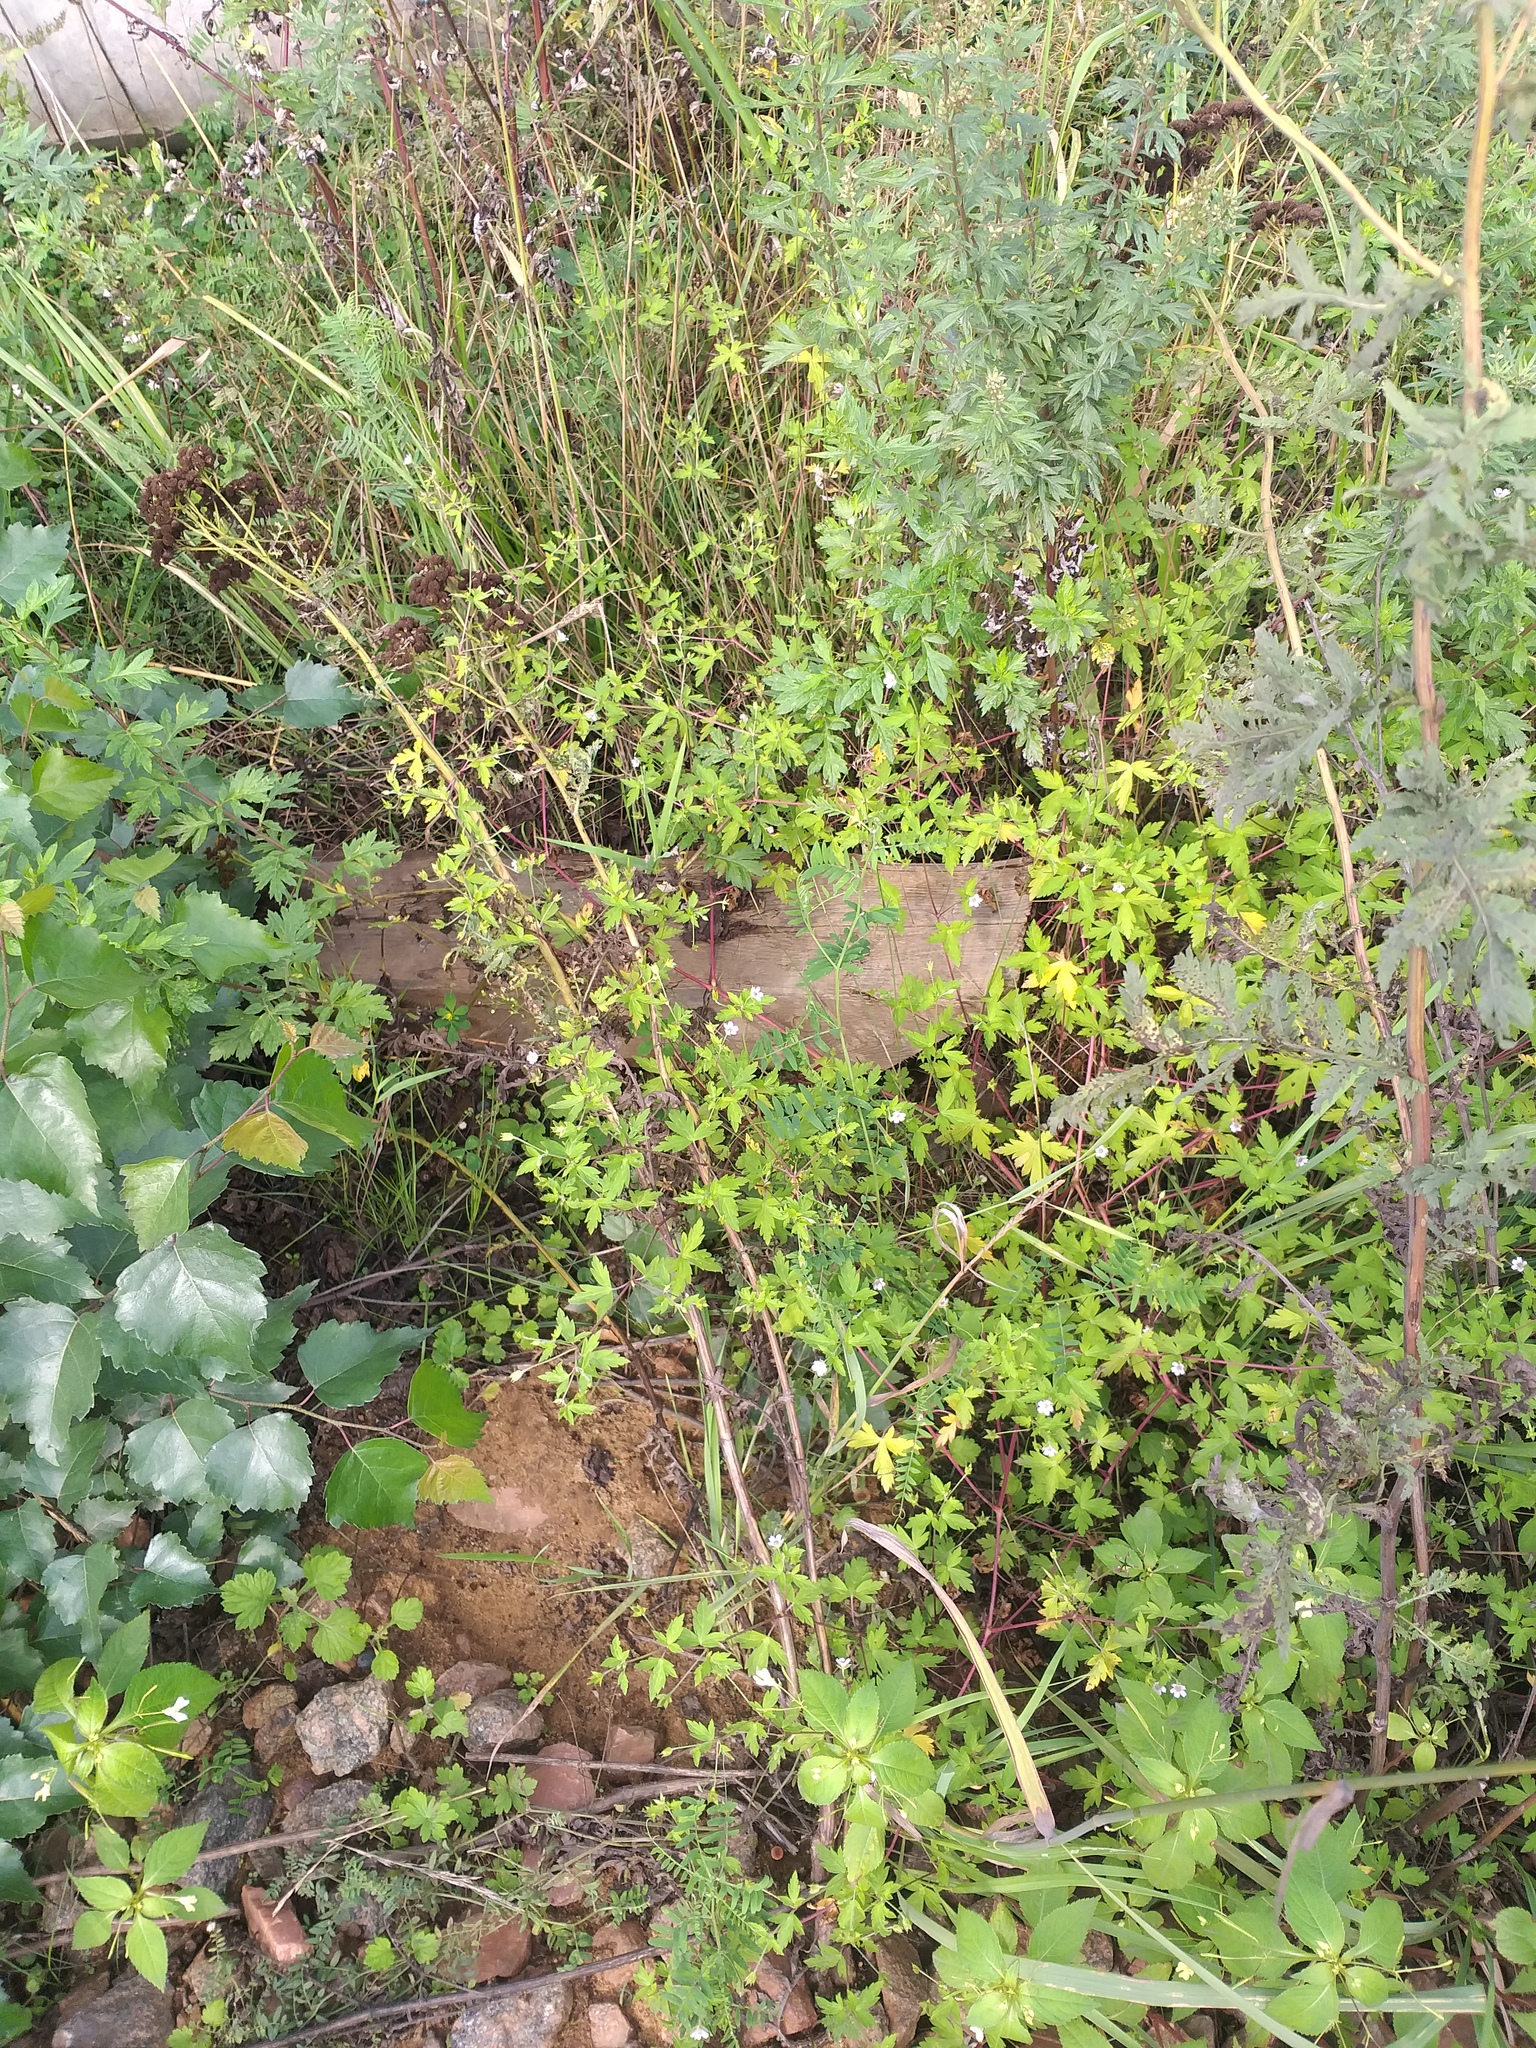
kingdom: Plantae
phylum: Tracheophyta
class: Magnoliopsida
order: Geraniales
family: Geraniaceae
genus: Geranium
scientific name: Geranium sibiricum
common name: Siberian crane's-bill
